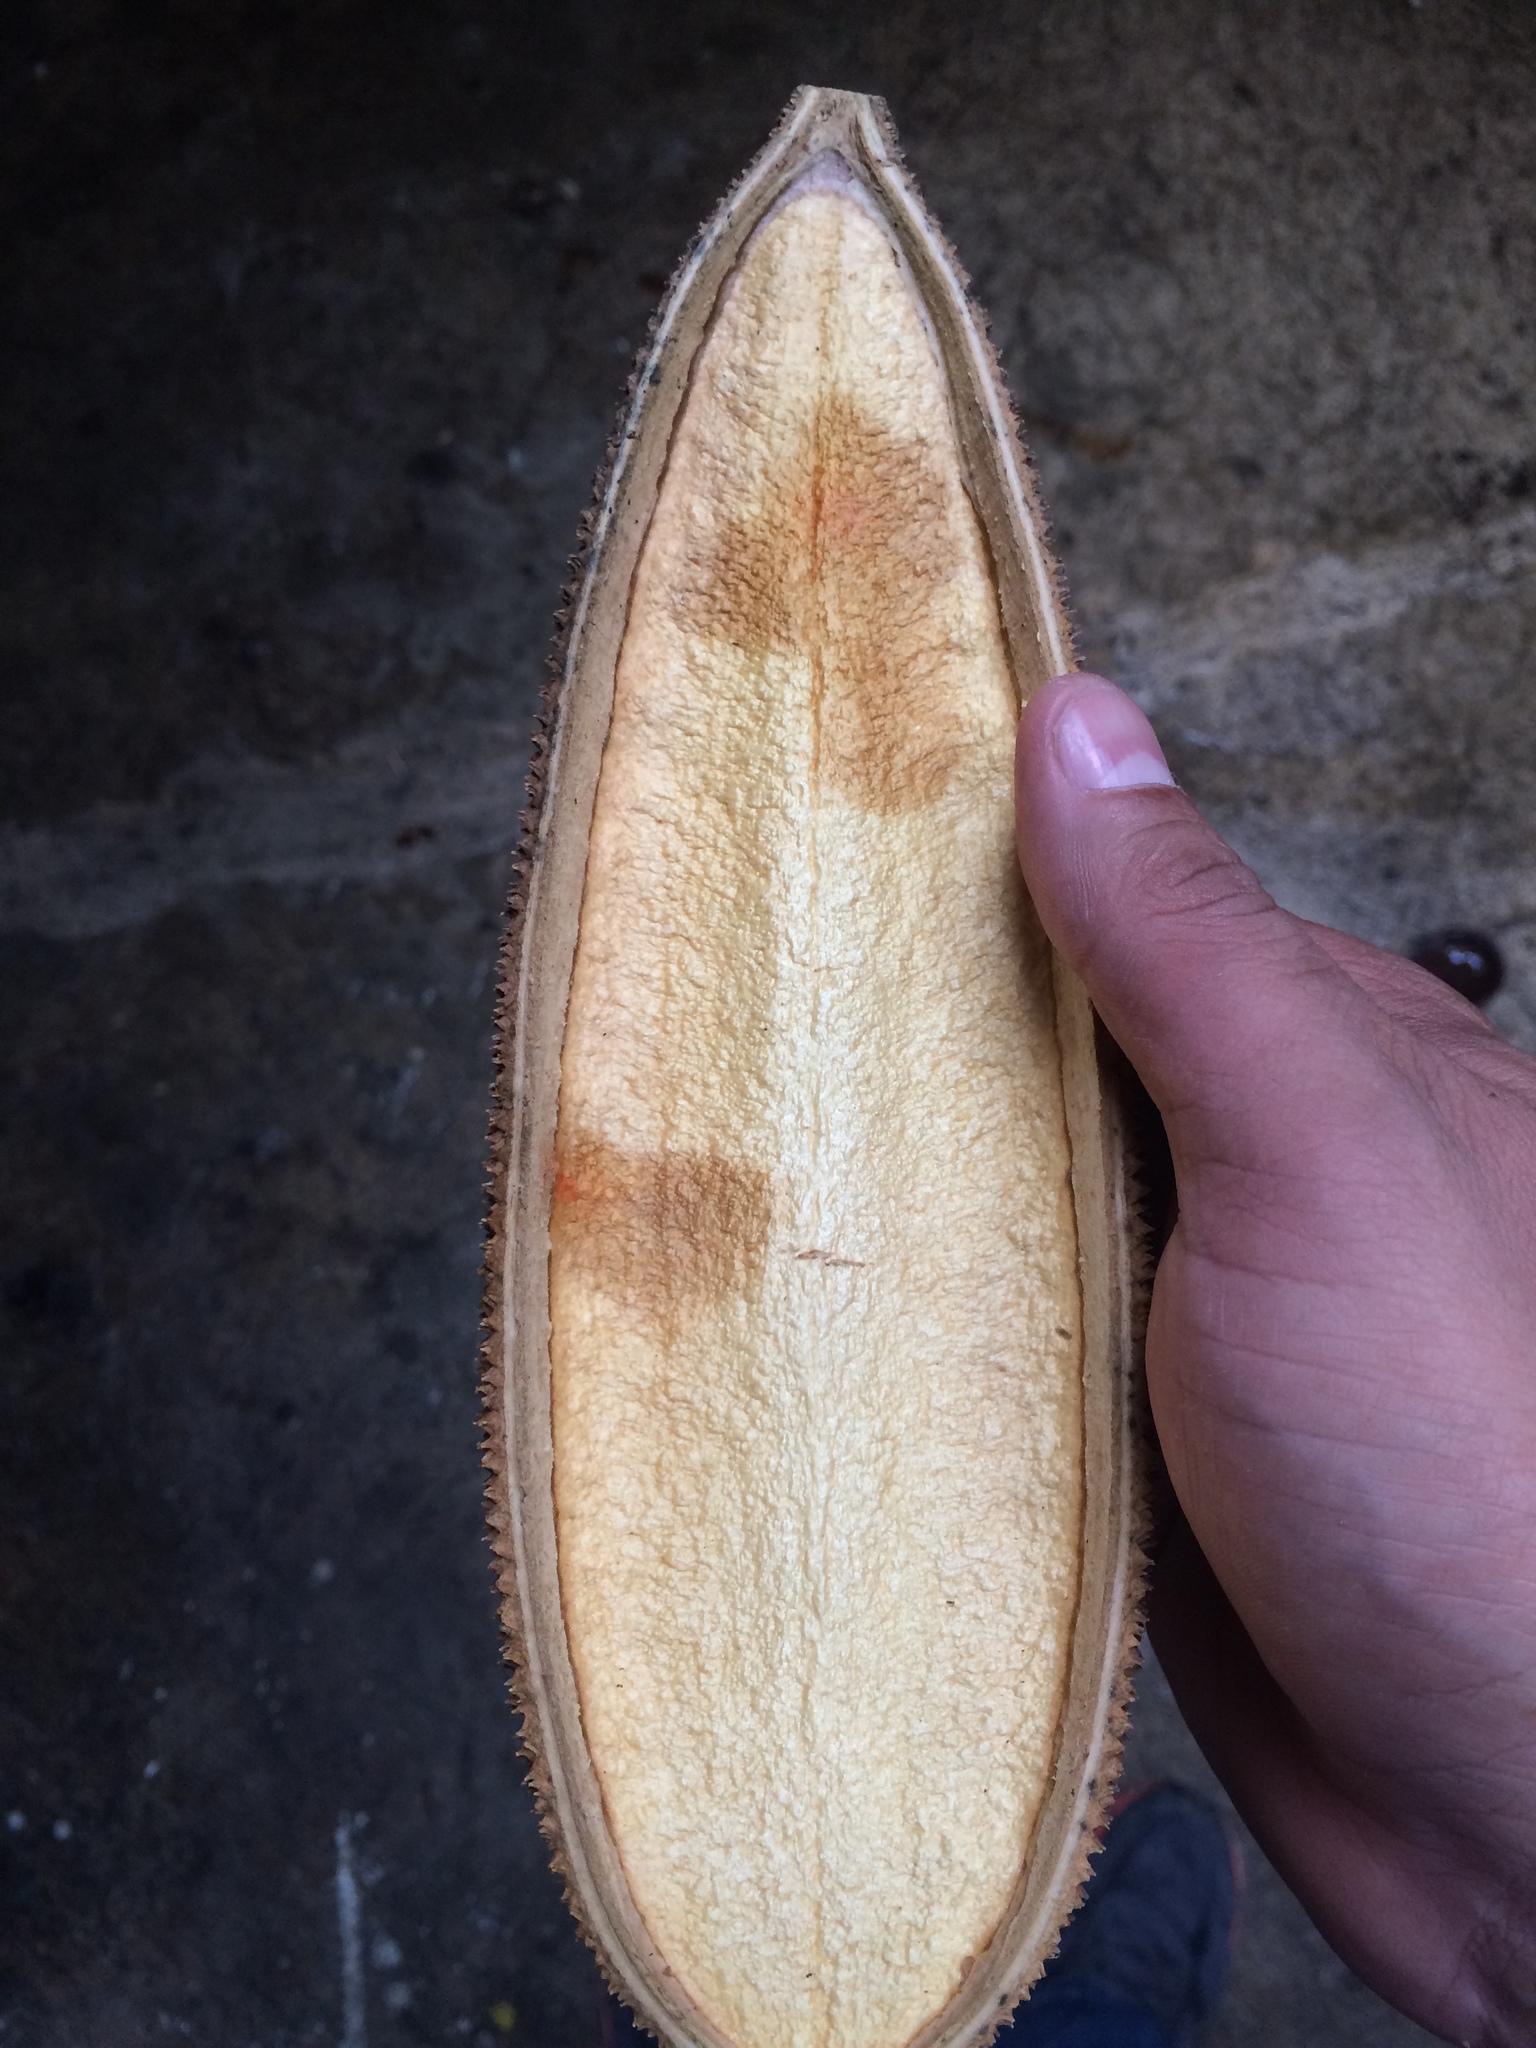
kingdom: Plantae
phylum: Tracheophyta
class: Magnoliopsida
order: Lamiales
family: Bignoniaceae
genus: Amphilophium
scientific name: Amphilophium crucigerum
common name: Monkey comb
